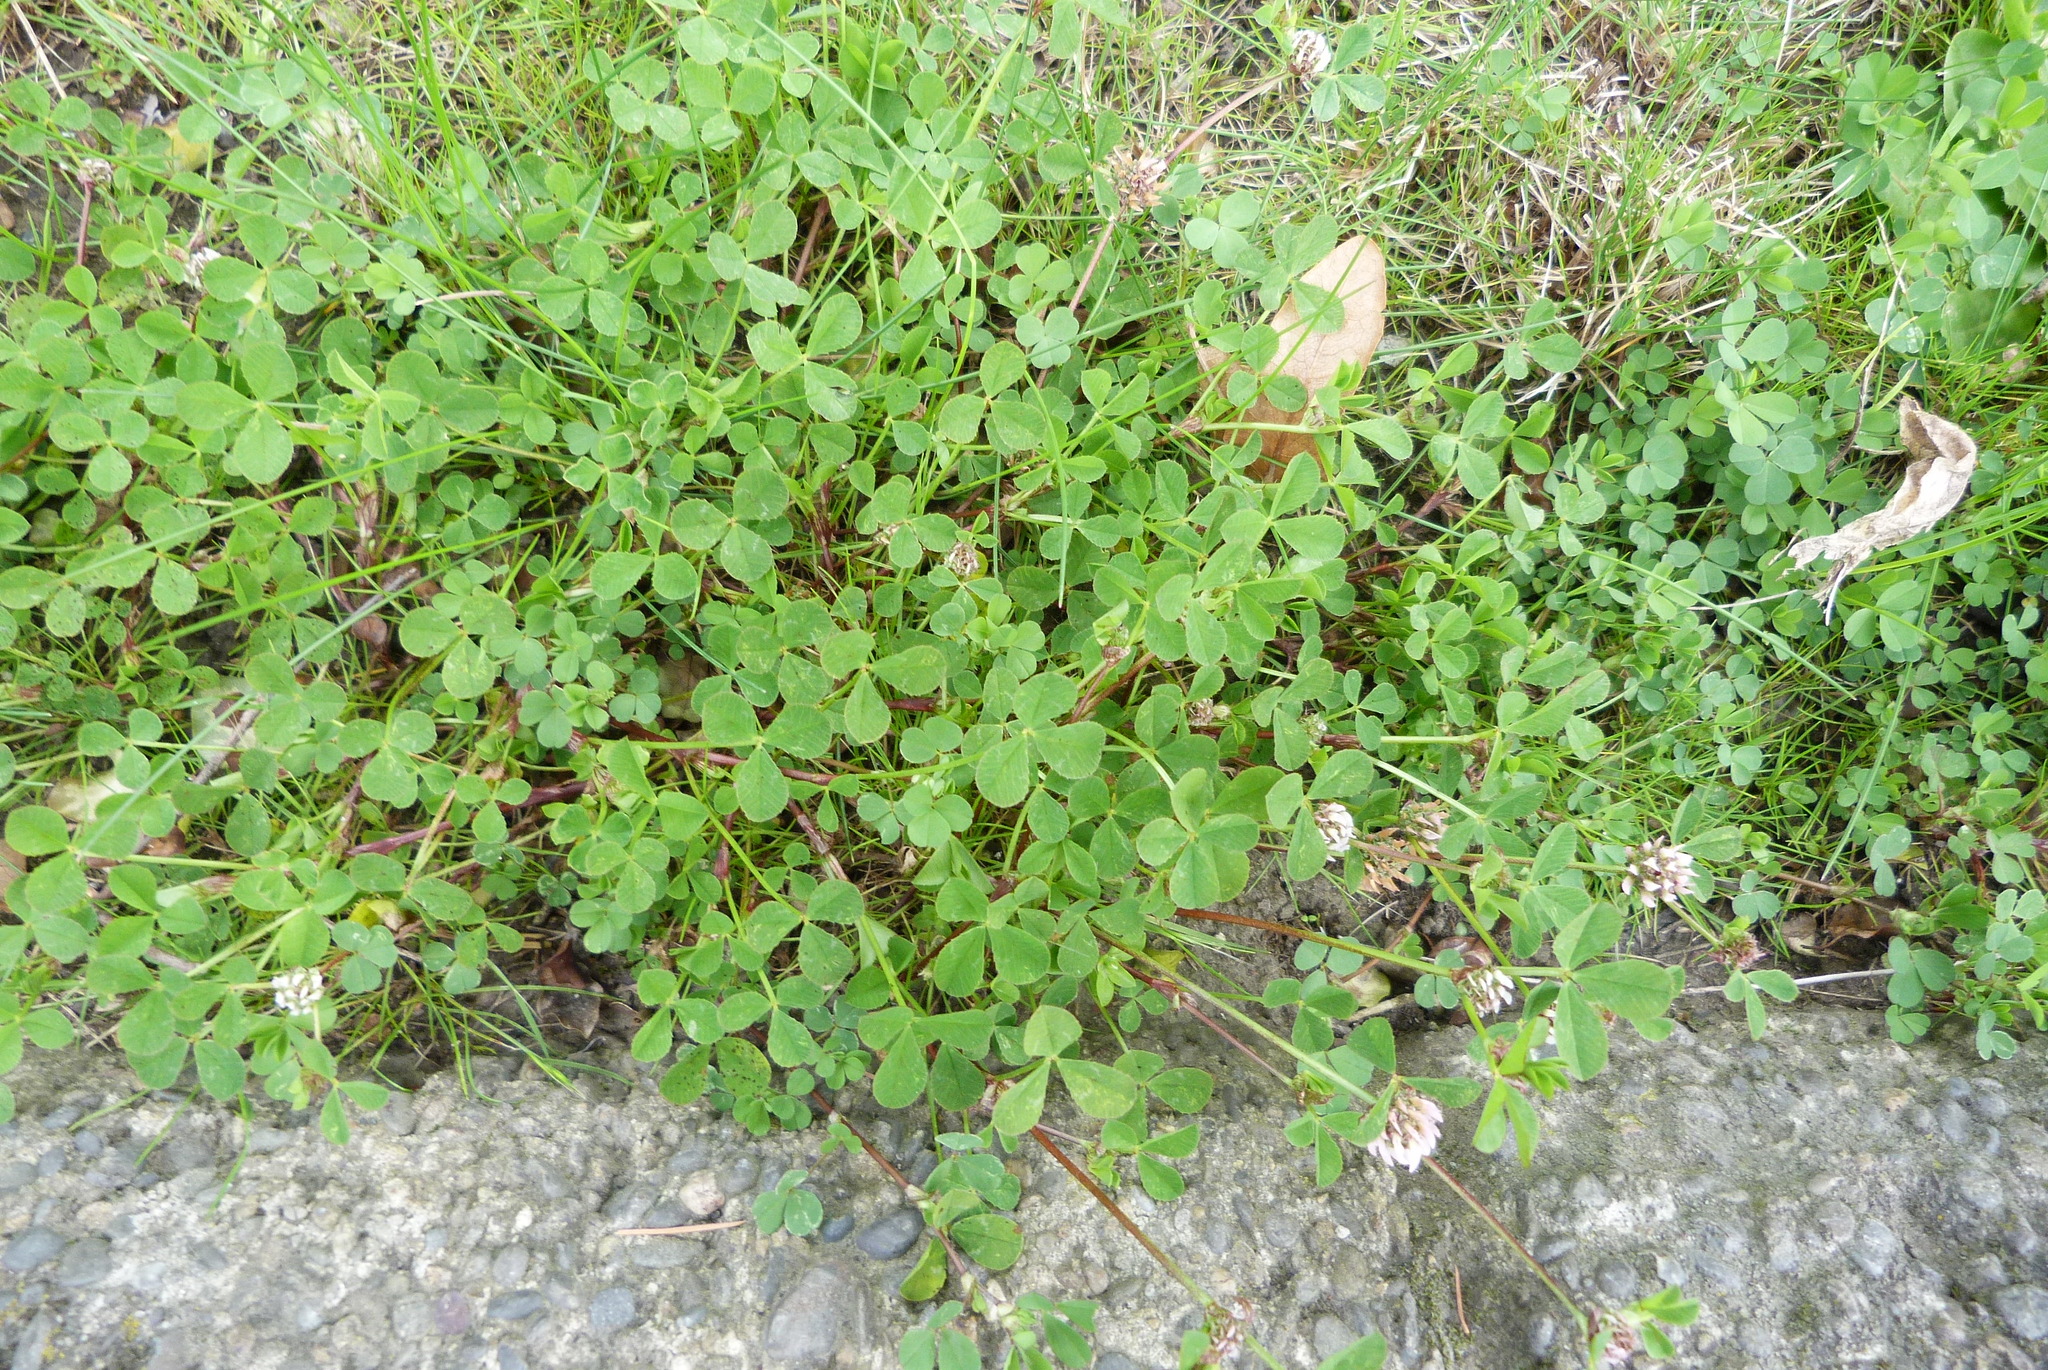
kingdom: Plantae
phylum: Tracheophyta
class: Magnoliopsida
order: Fabales
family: Fabaceae
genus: Trifolium
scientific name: Trifolium fragiferum
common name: Strawberry clover
